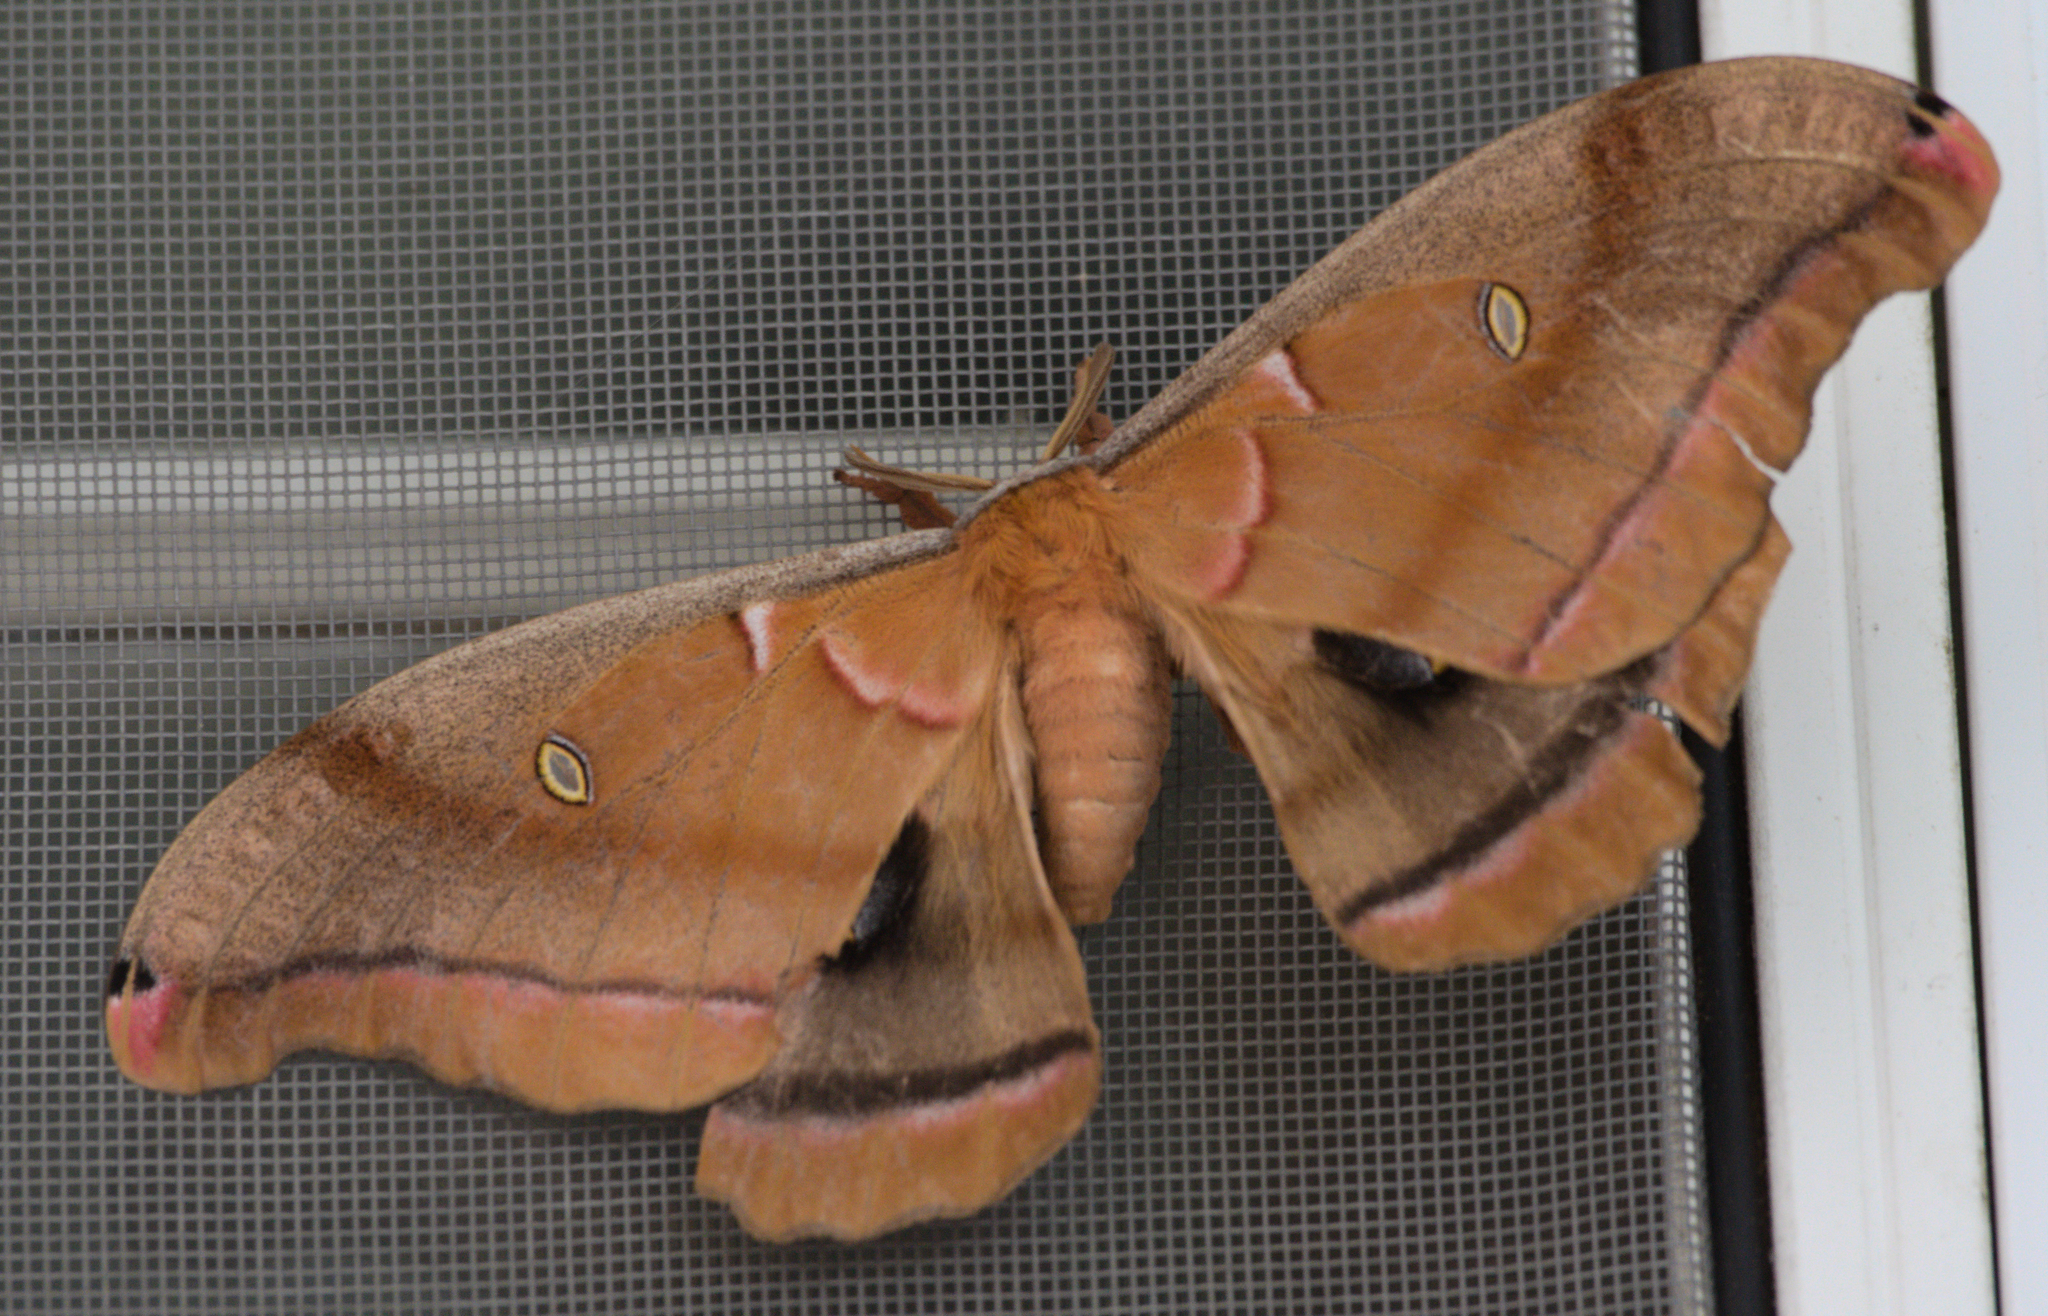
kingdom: Animalia
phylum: Arthropoda
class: Insecta
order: Lepidoptera
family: Saturniidae
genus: Antheraea
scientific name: Antheraea polyphemus
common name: Polyphemus moth
